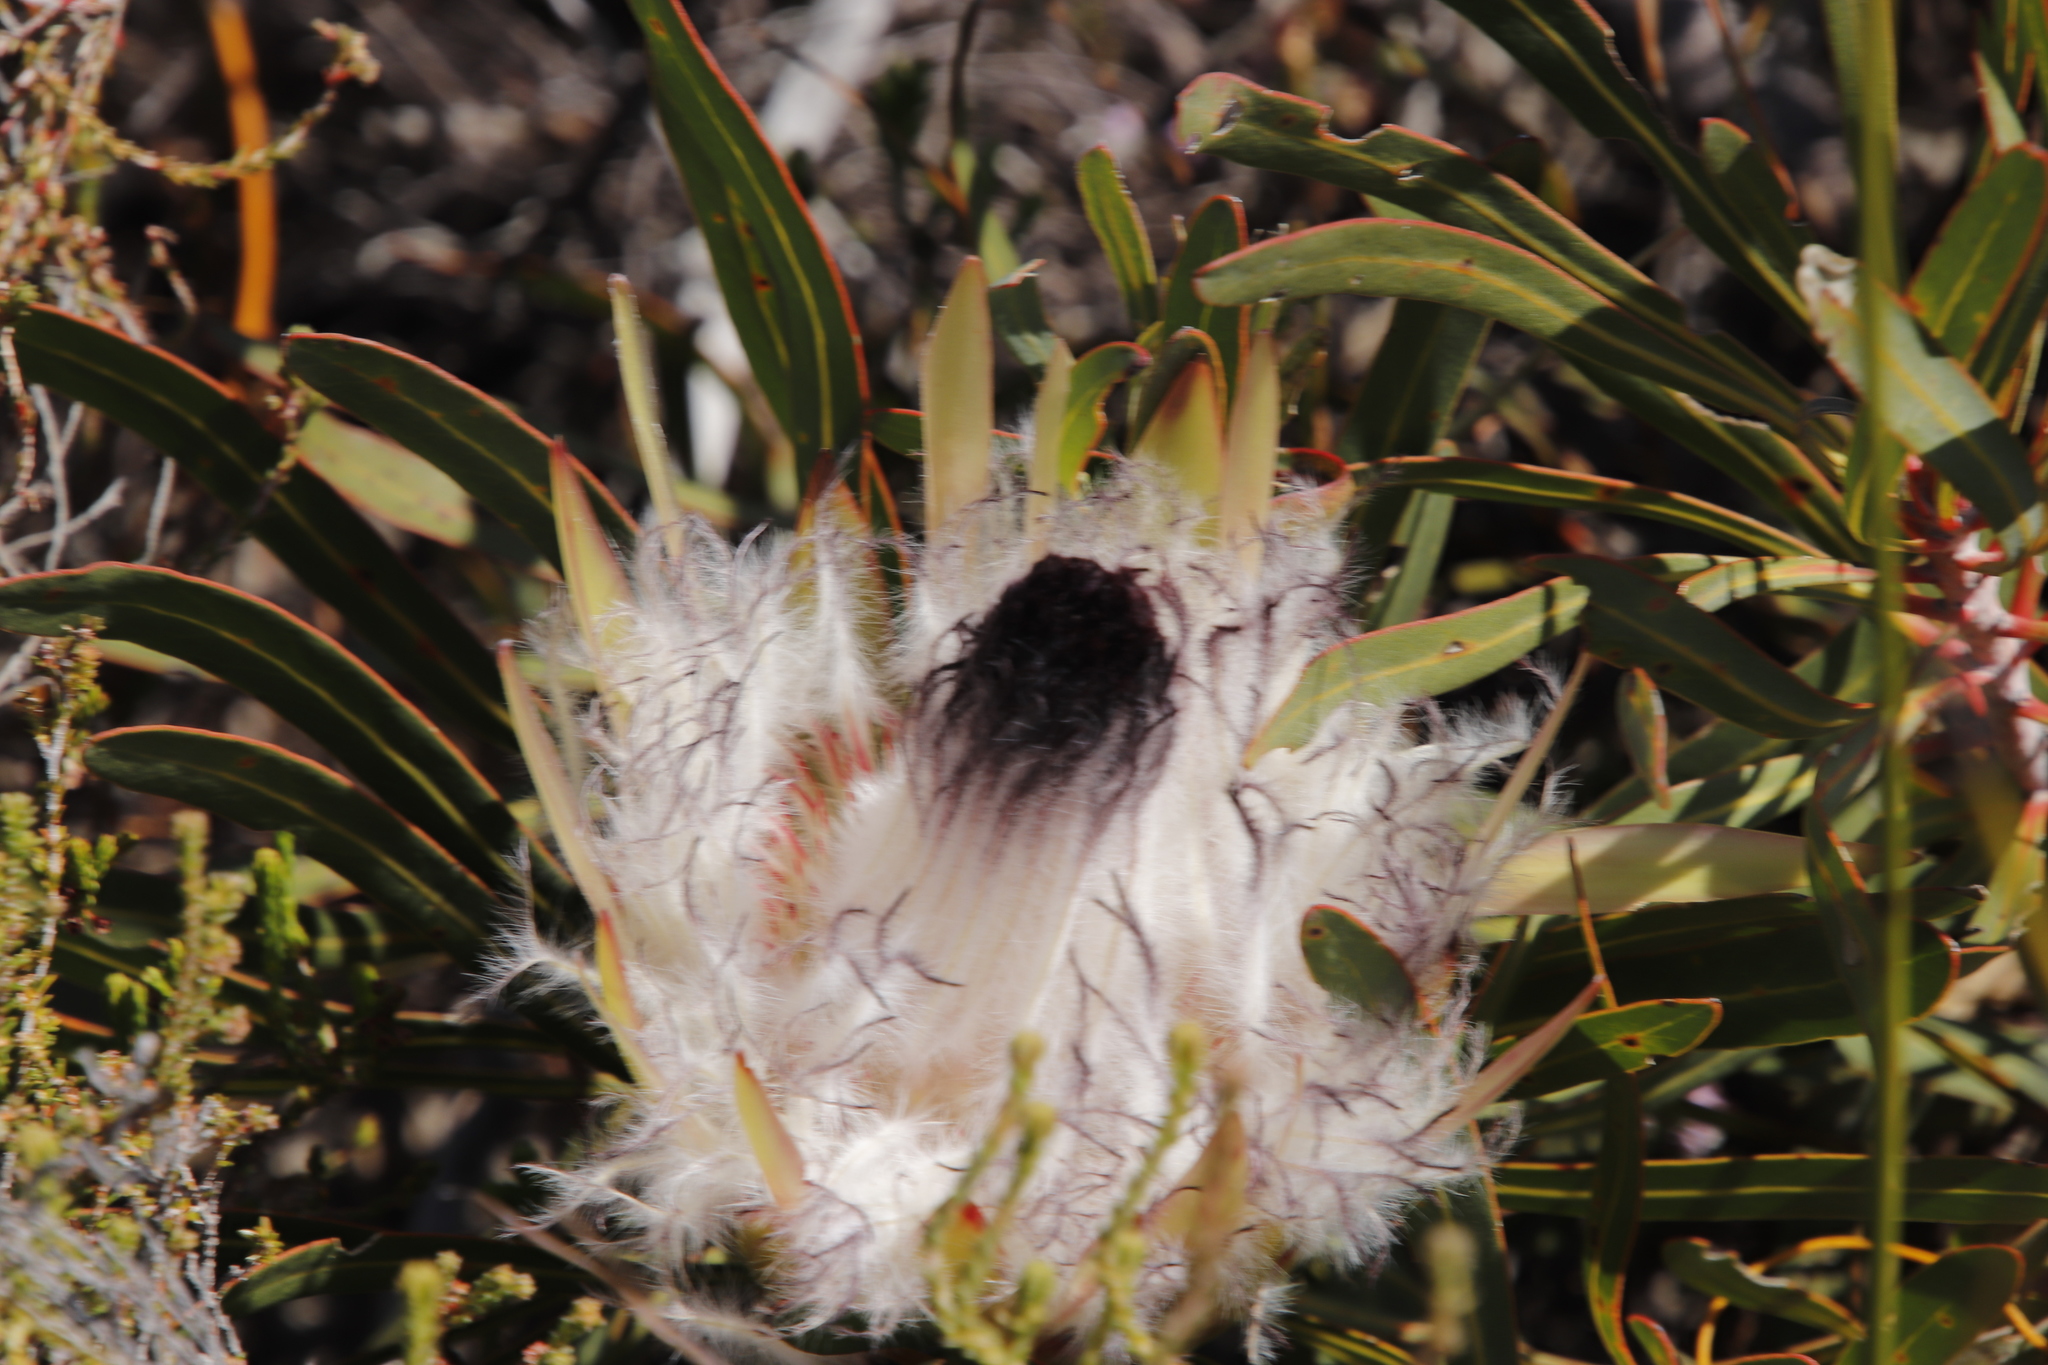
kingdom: Plantae
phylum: Tracheophyta
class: Magnoliopsida
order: Proteales
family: Proteaceae
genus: Protea
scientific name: Protea longifolia
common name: Long-leaf sugarbush
